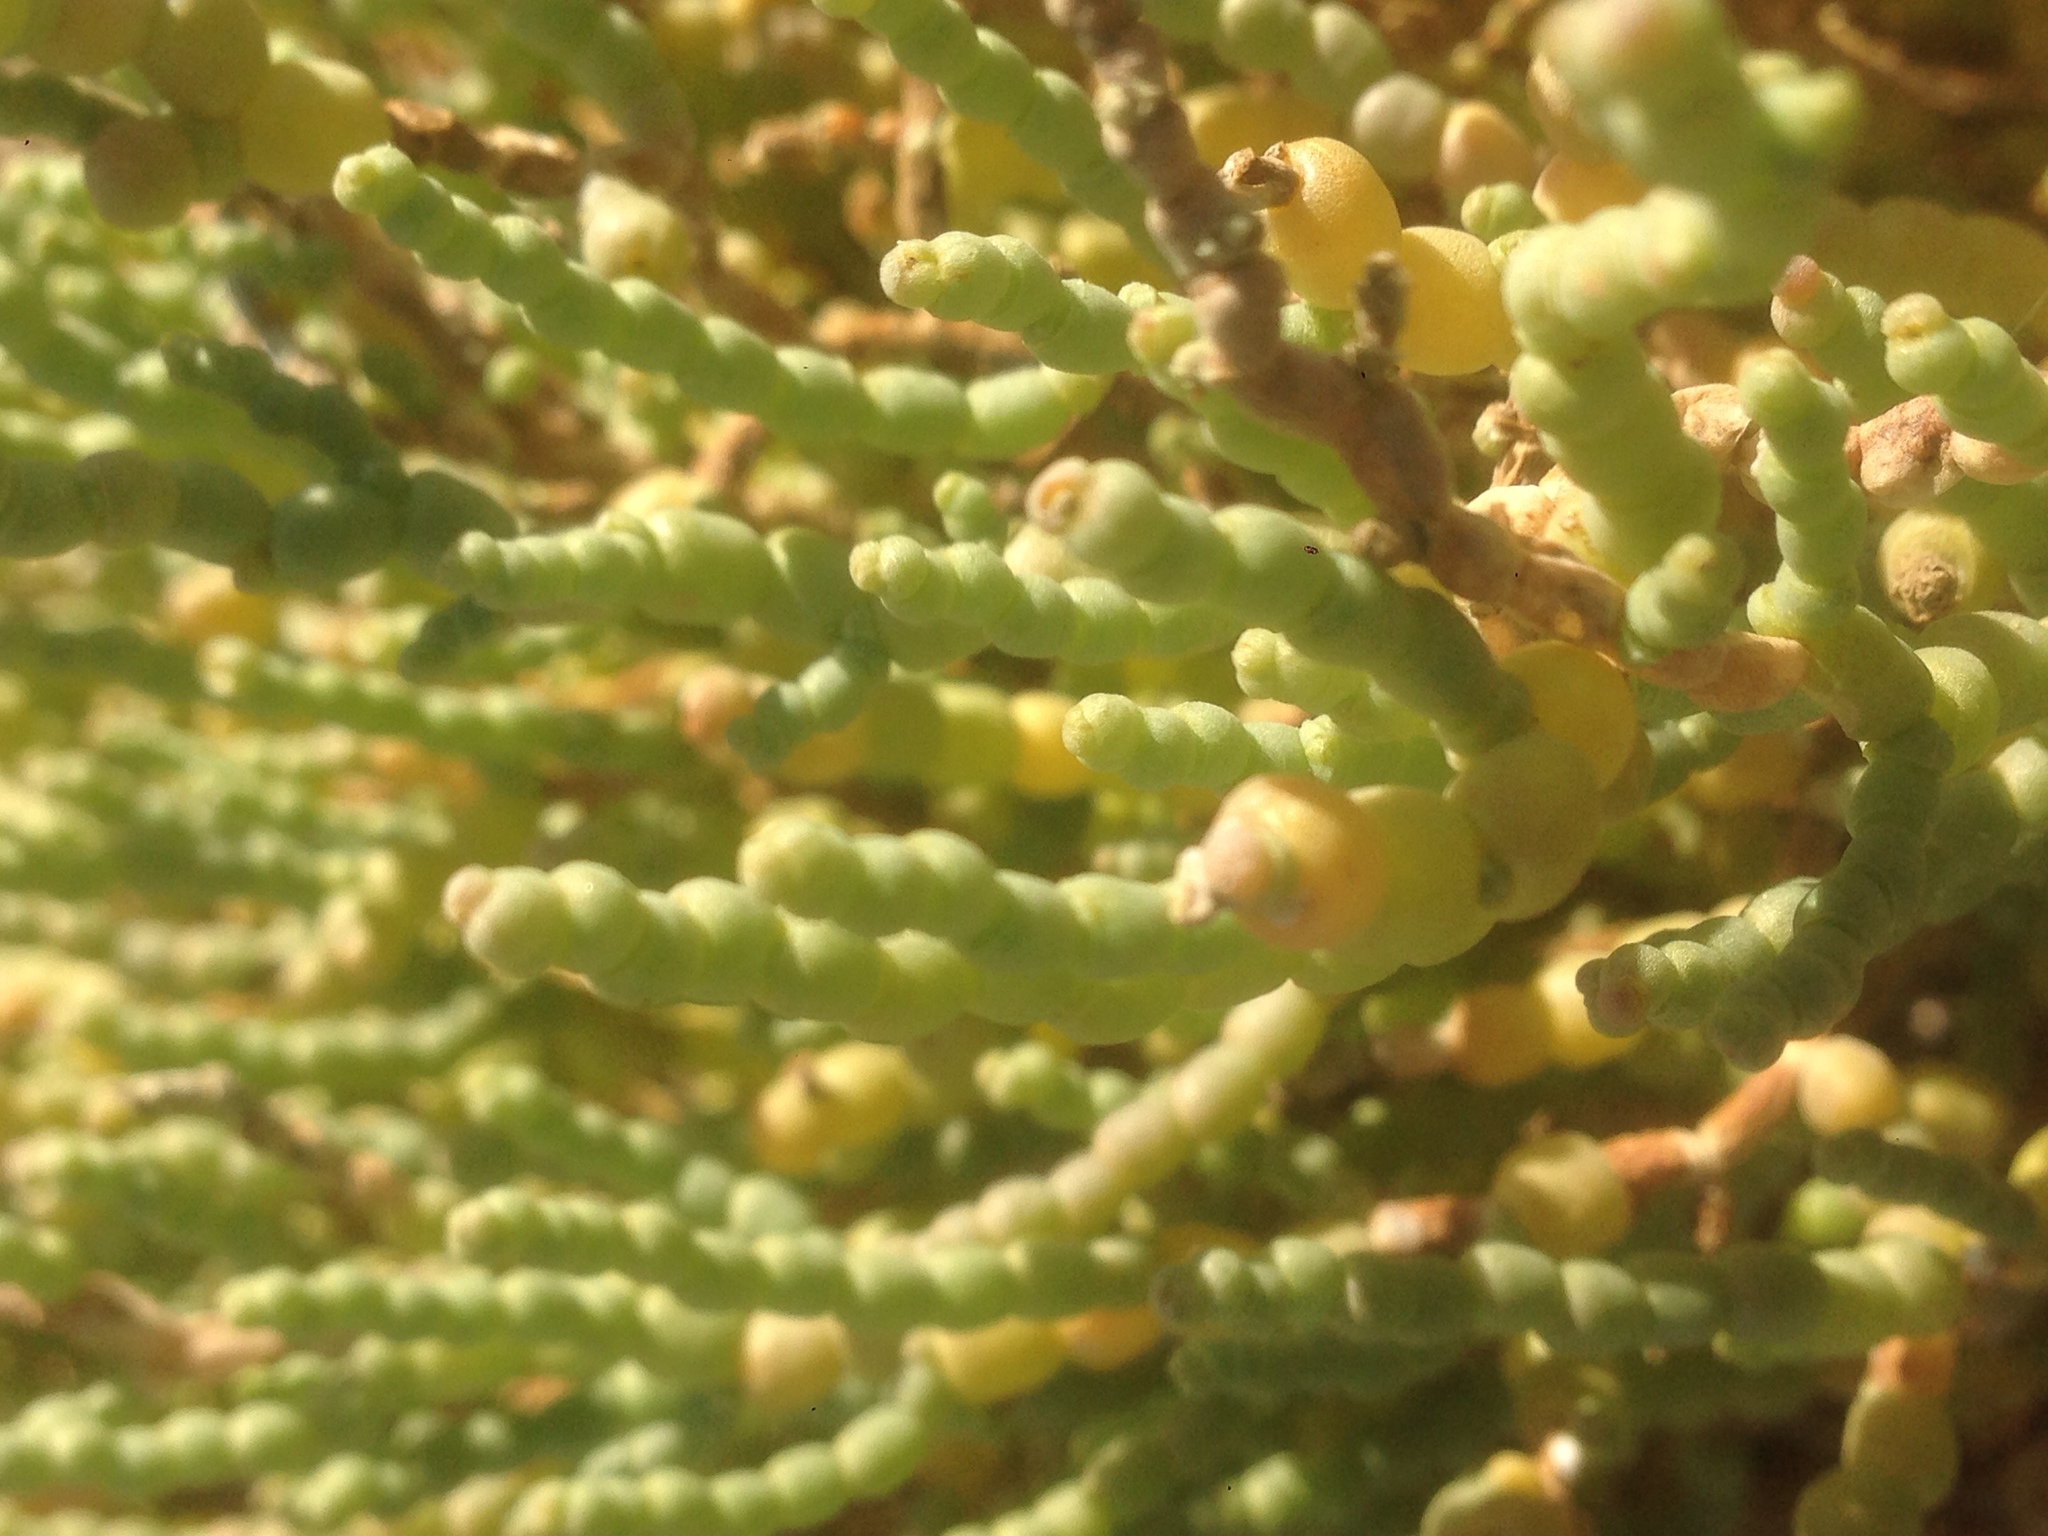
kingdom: Plantae
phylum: Tracheophyta
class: Magnoliopsida
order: Caryophyllales
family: Amaranthaceae
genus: Allenrolfea
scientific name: Allenrolfea occidentalis
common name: Iodine-bush
